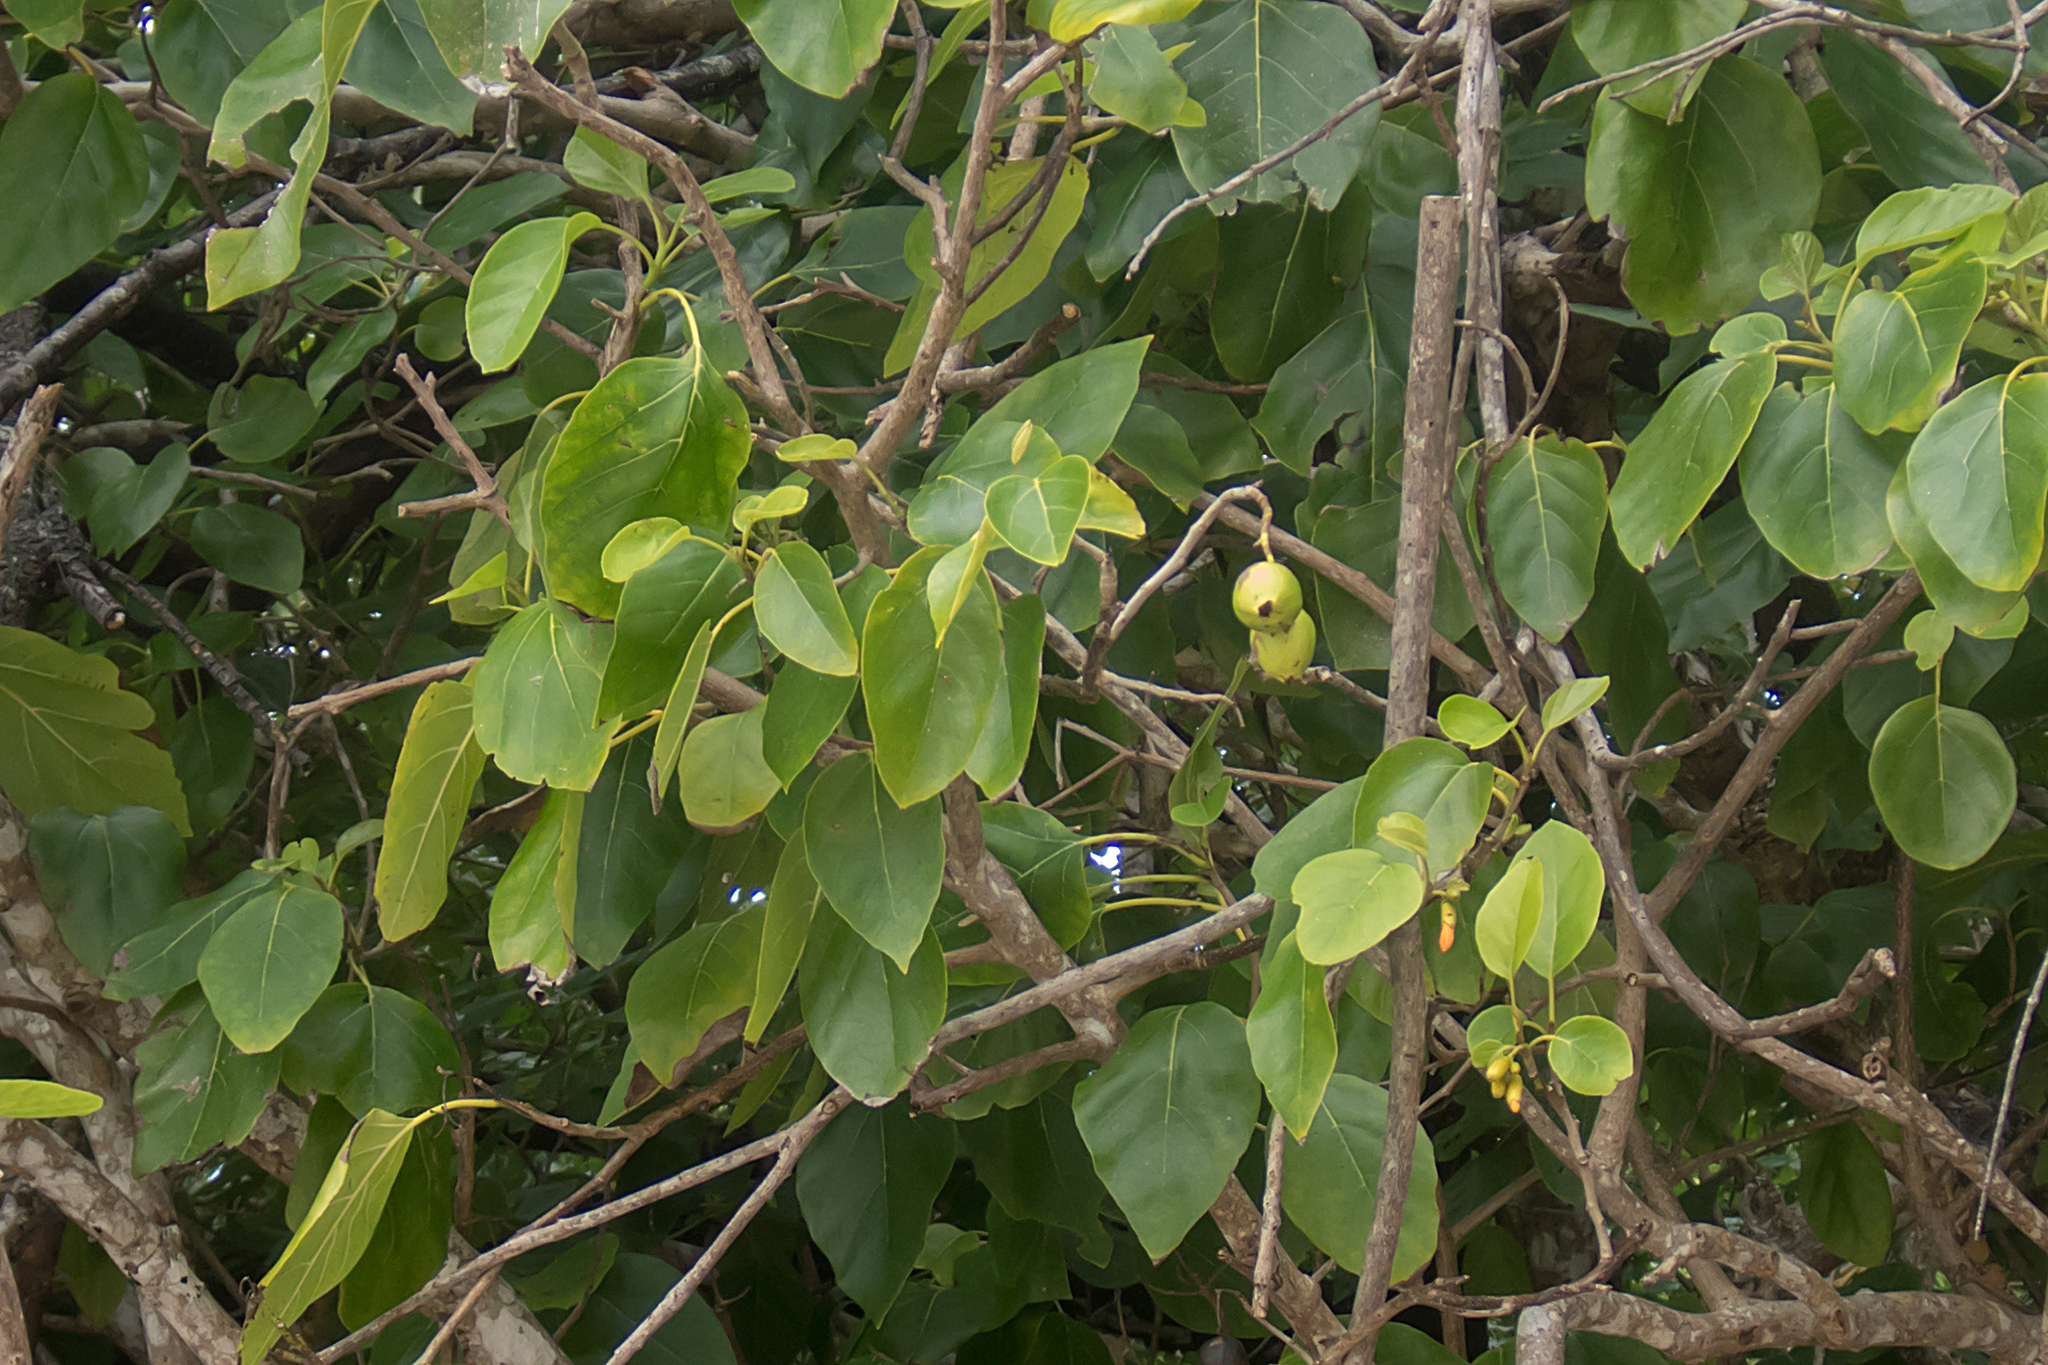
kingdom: Plantae
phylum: Tracheophyta
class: Magnoliopsida
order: Boraginales
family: Cordiaceae
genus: Cordia
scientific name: Cordia subcordata
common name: Mareer
